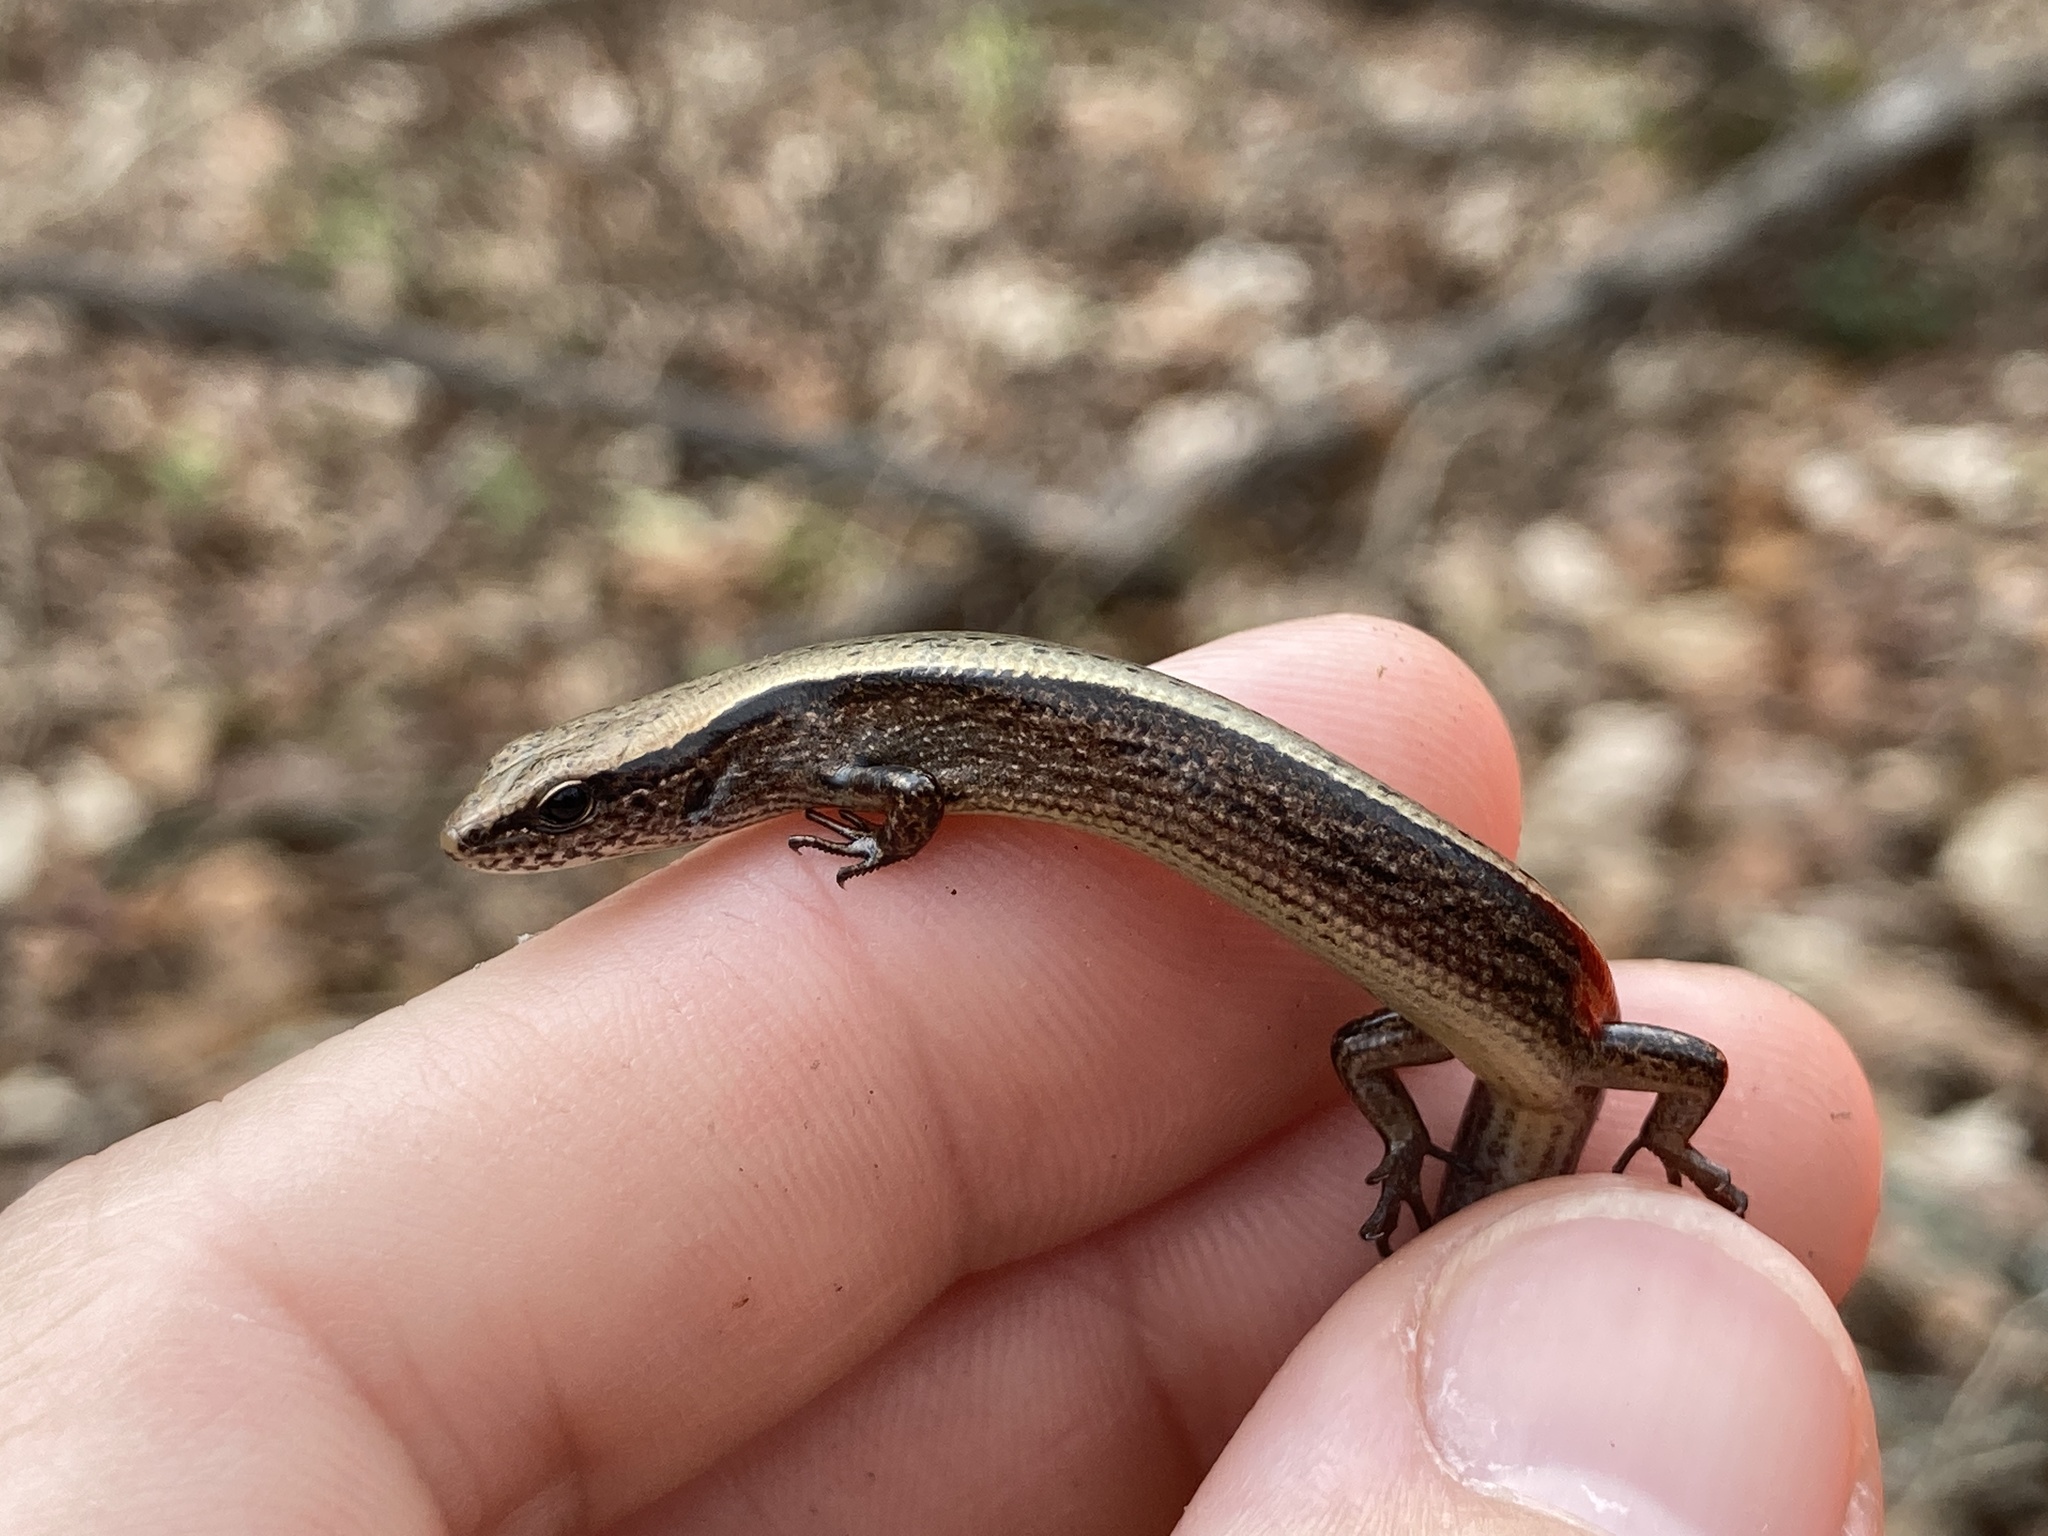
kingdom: Animalia
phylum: Chordata
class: Squamata
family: Scincidae
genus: Scincella
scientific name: Scincella lateralis
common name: Ground skink
